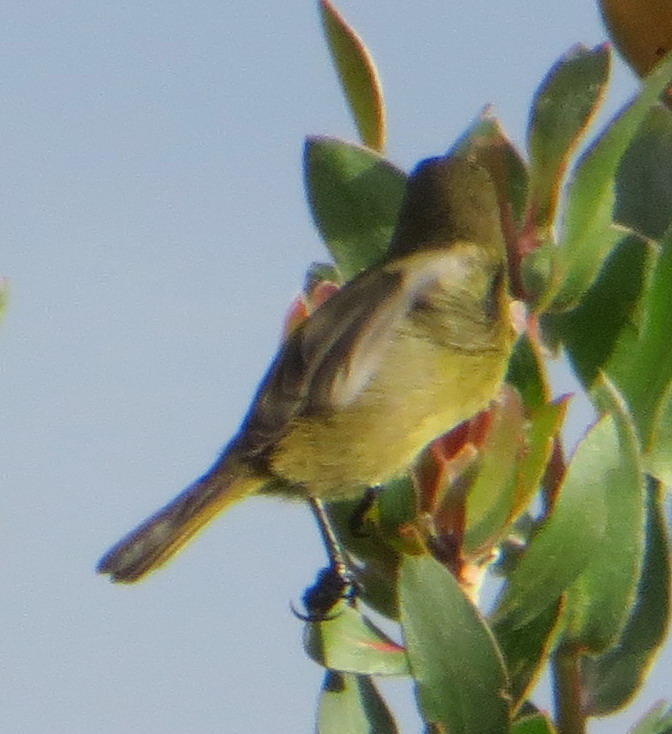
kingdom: Animalia
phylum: Chordata
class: Aves
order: Passeriformes
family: Nectariniidae
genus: Anthobaphes
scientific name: Anthobaphes violacea
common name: Orange-breasted sunbird
